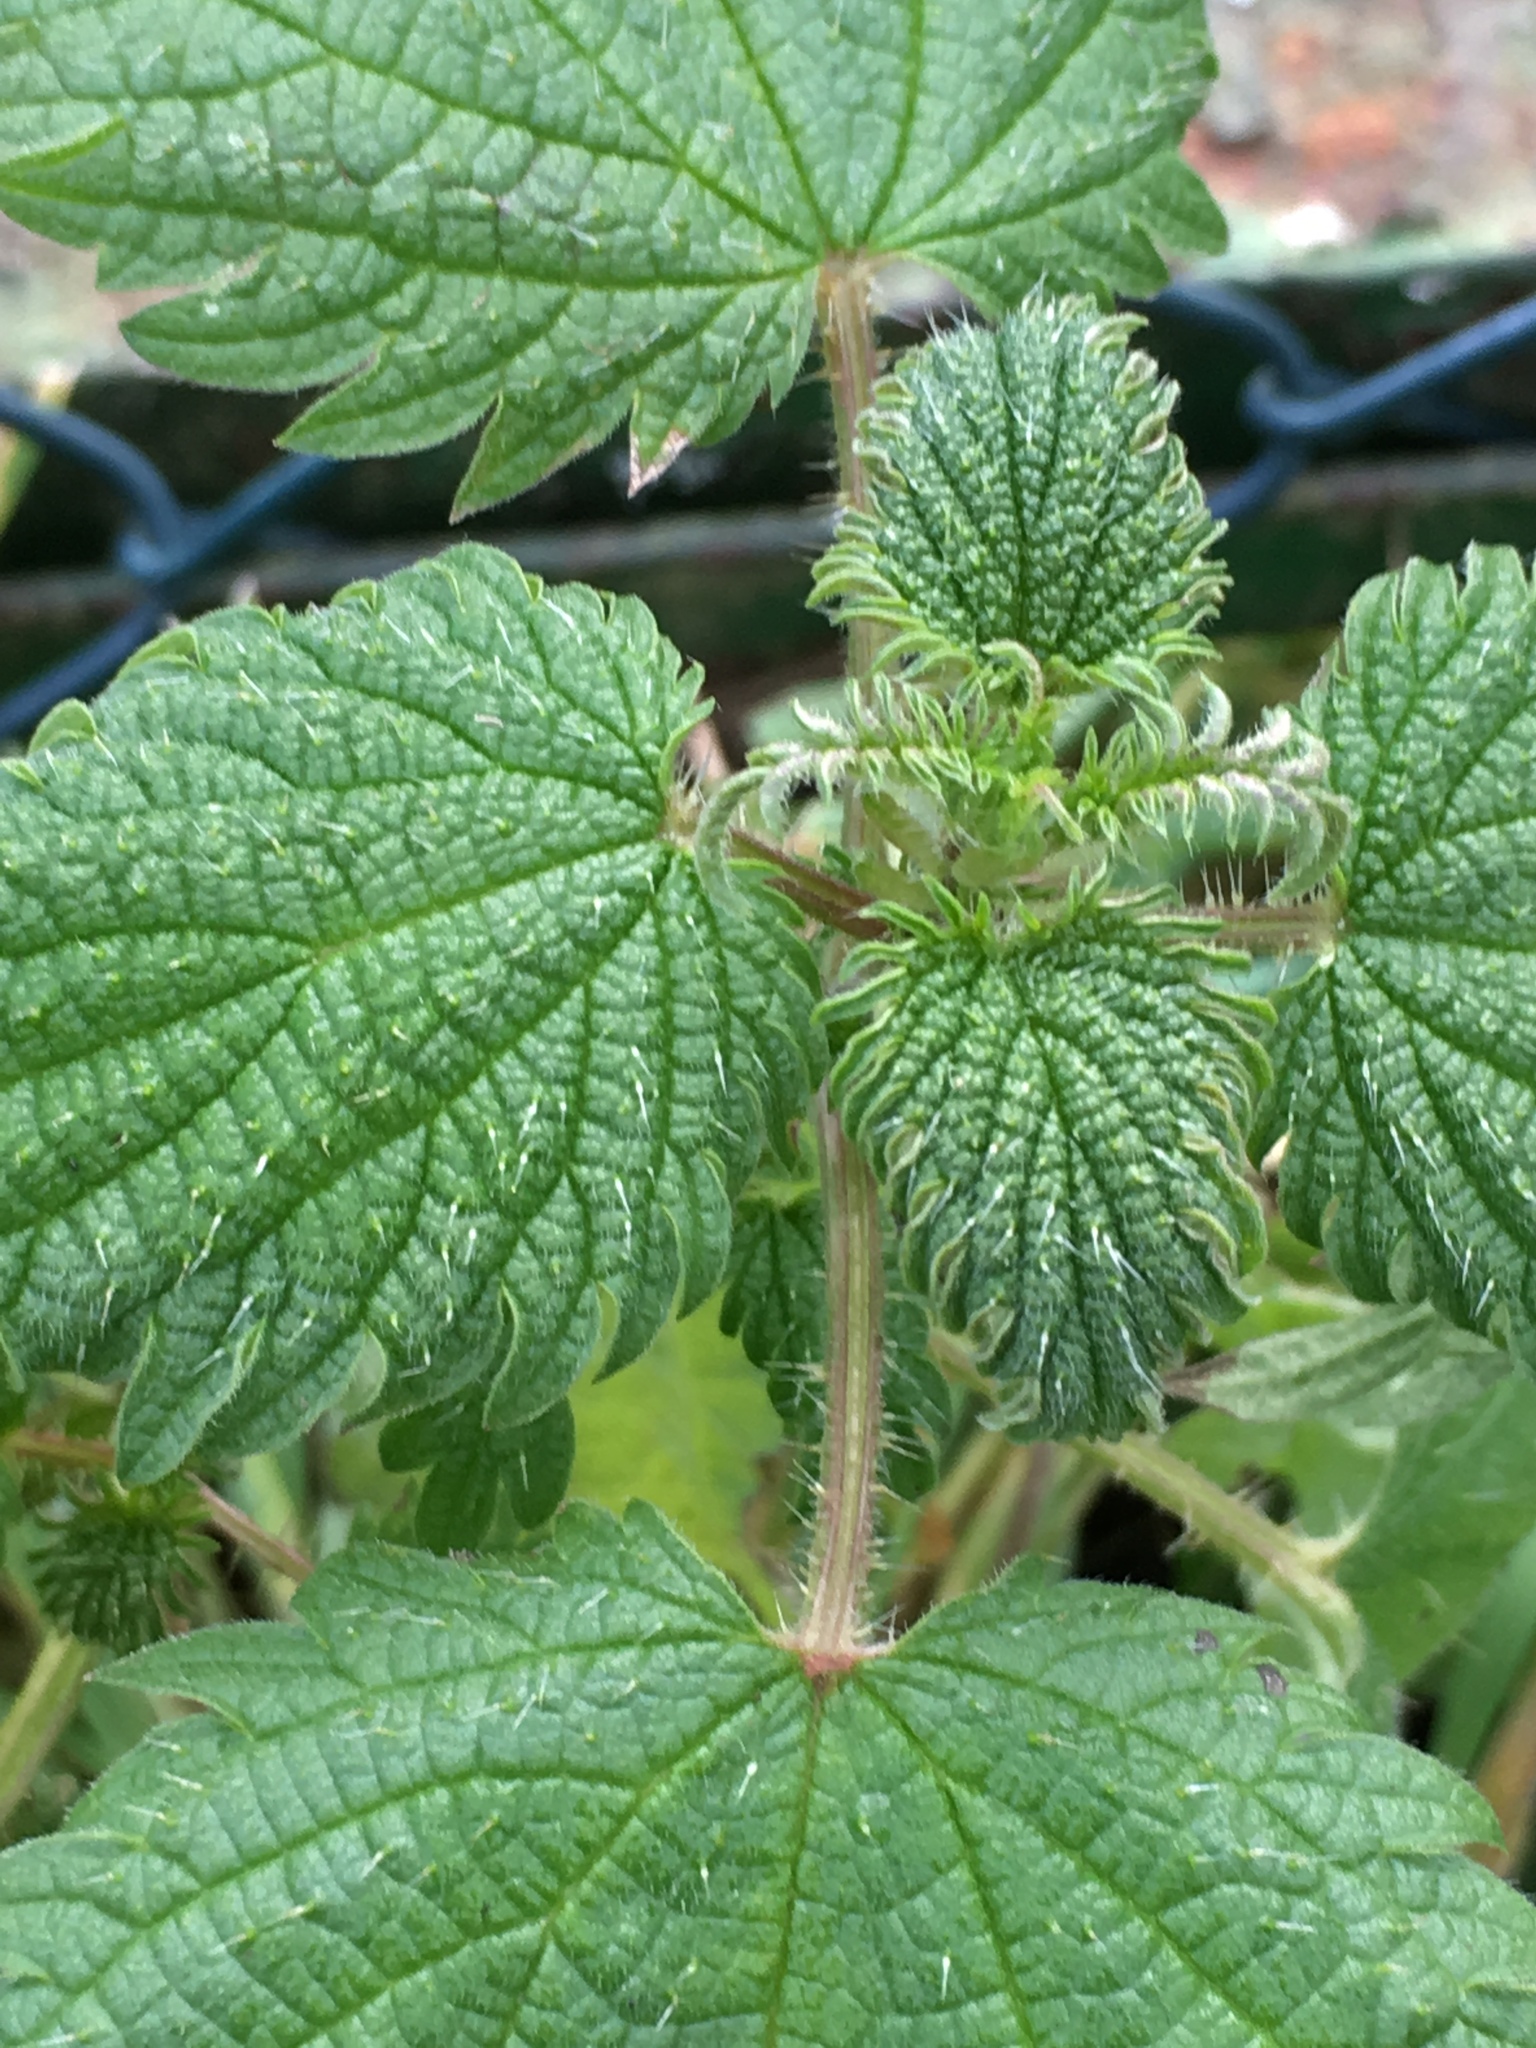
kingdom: Plantae
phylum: Tracheophyta
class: Magnoliopsida
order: Rosales
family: Urticaceae
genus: Urtica
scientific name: Urtica dioica
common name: Common nettle
